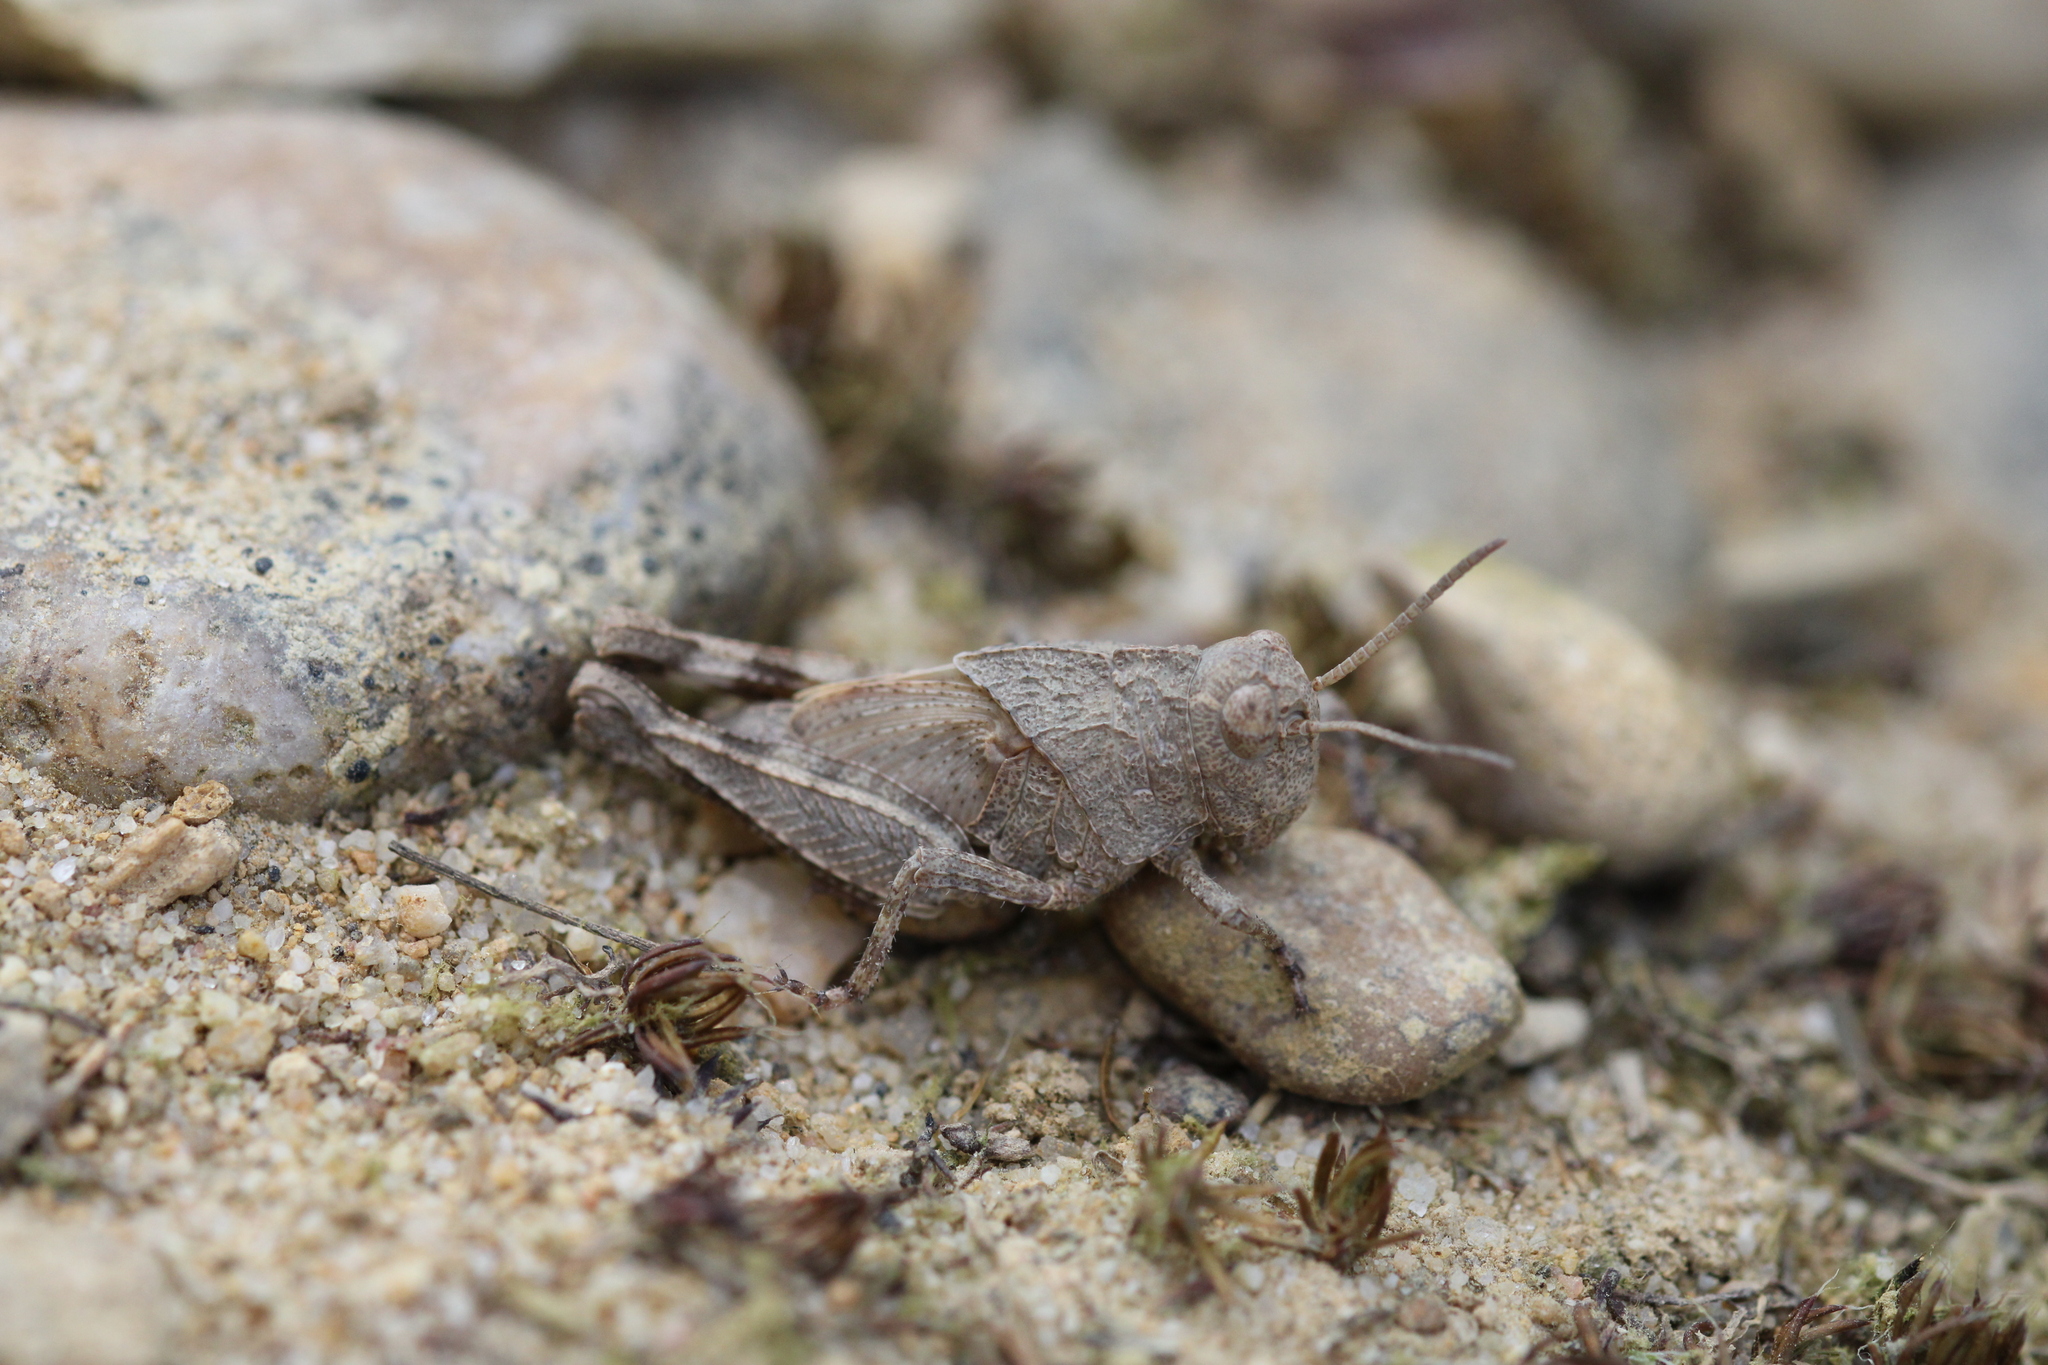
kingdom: Animalia
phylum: Arthropoda
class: Insecta
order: Orthoptera
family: Acrididae
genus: Oedipoda
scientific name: Oedipoda caerulescens
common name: Blue-winged grasshopper
